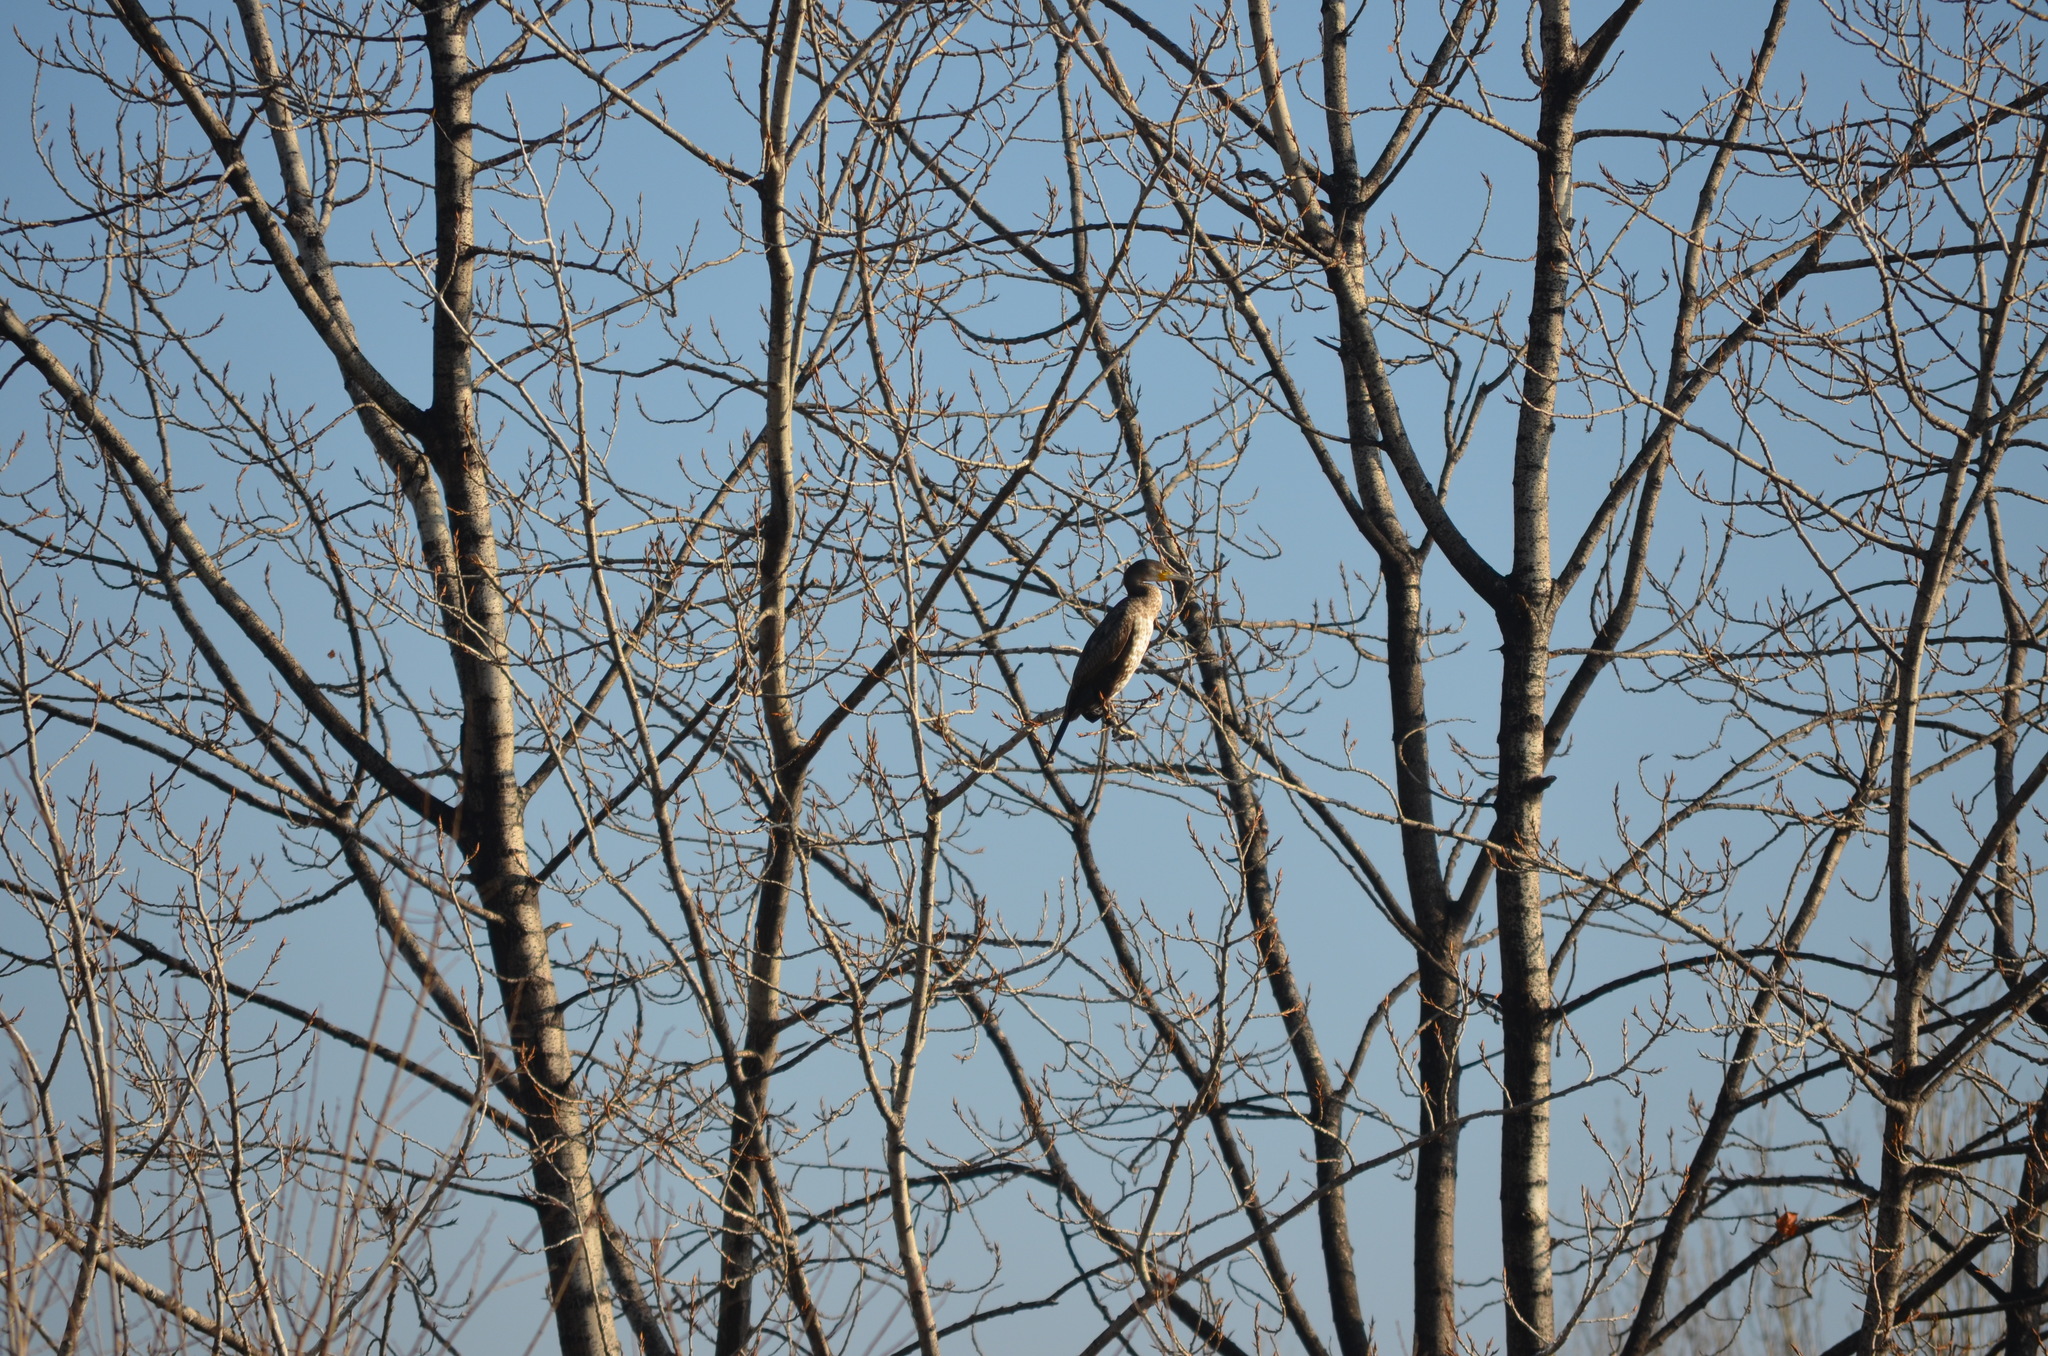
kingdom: Animalia
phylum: Chordata
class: Aves
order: Suliformes
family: Phalacrocoracidae
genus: Phalacrocorax
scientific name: Phalacrocorax carbo
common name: Great cormorant
